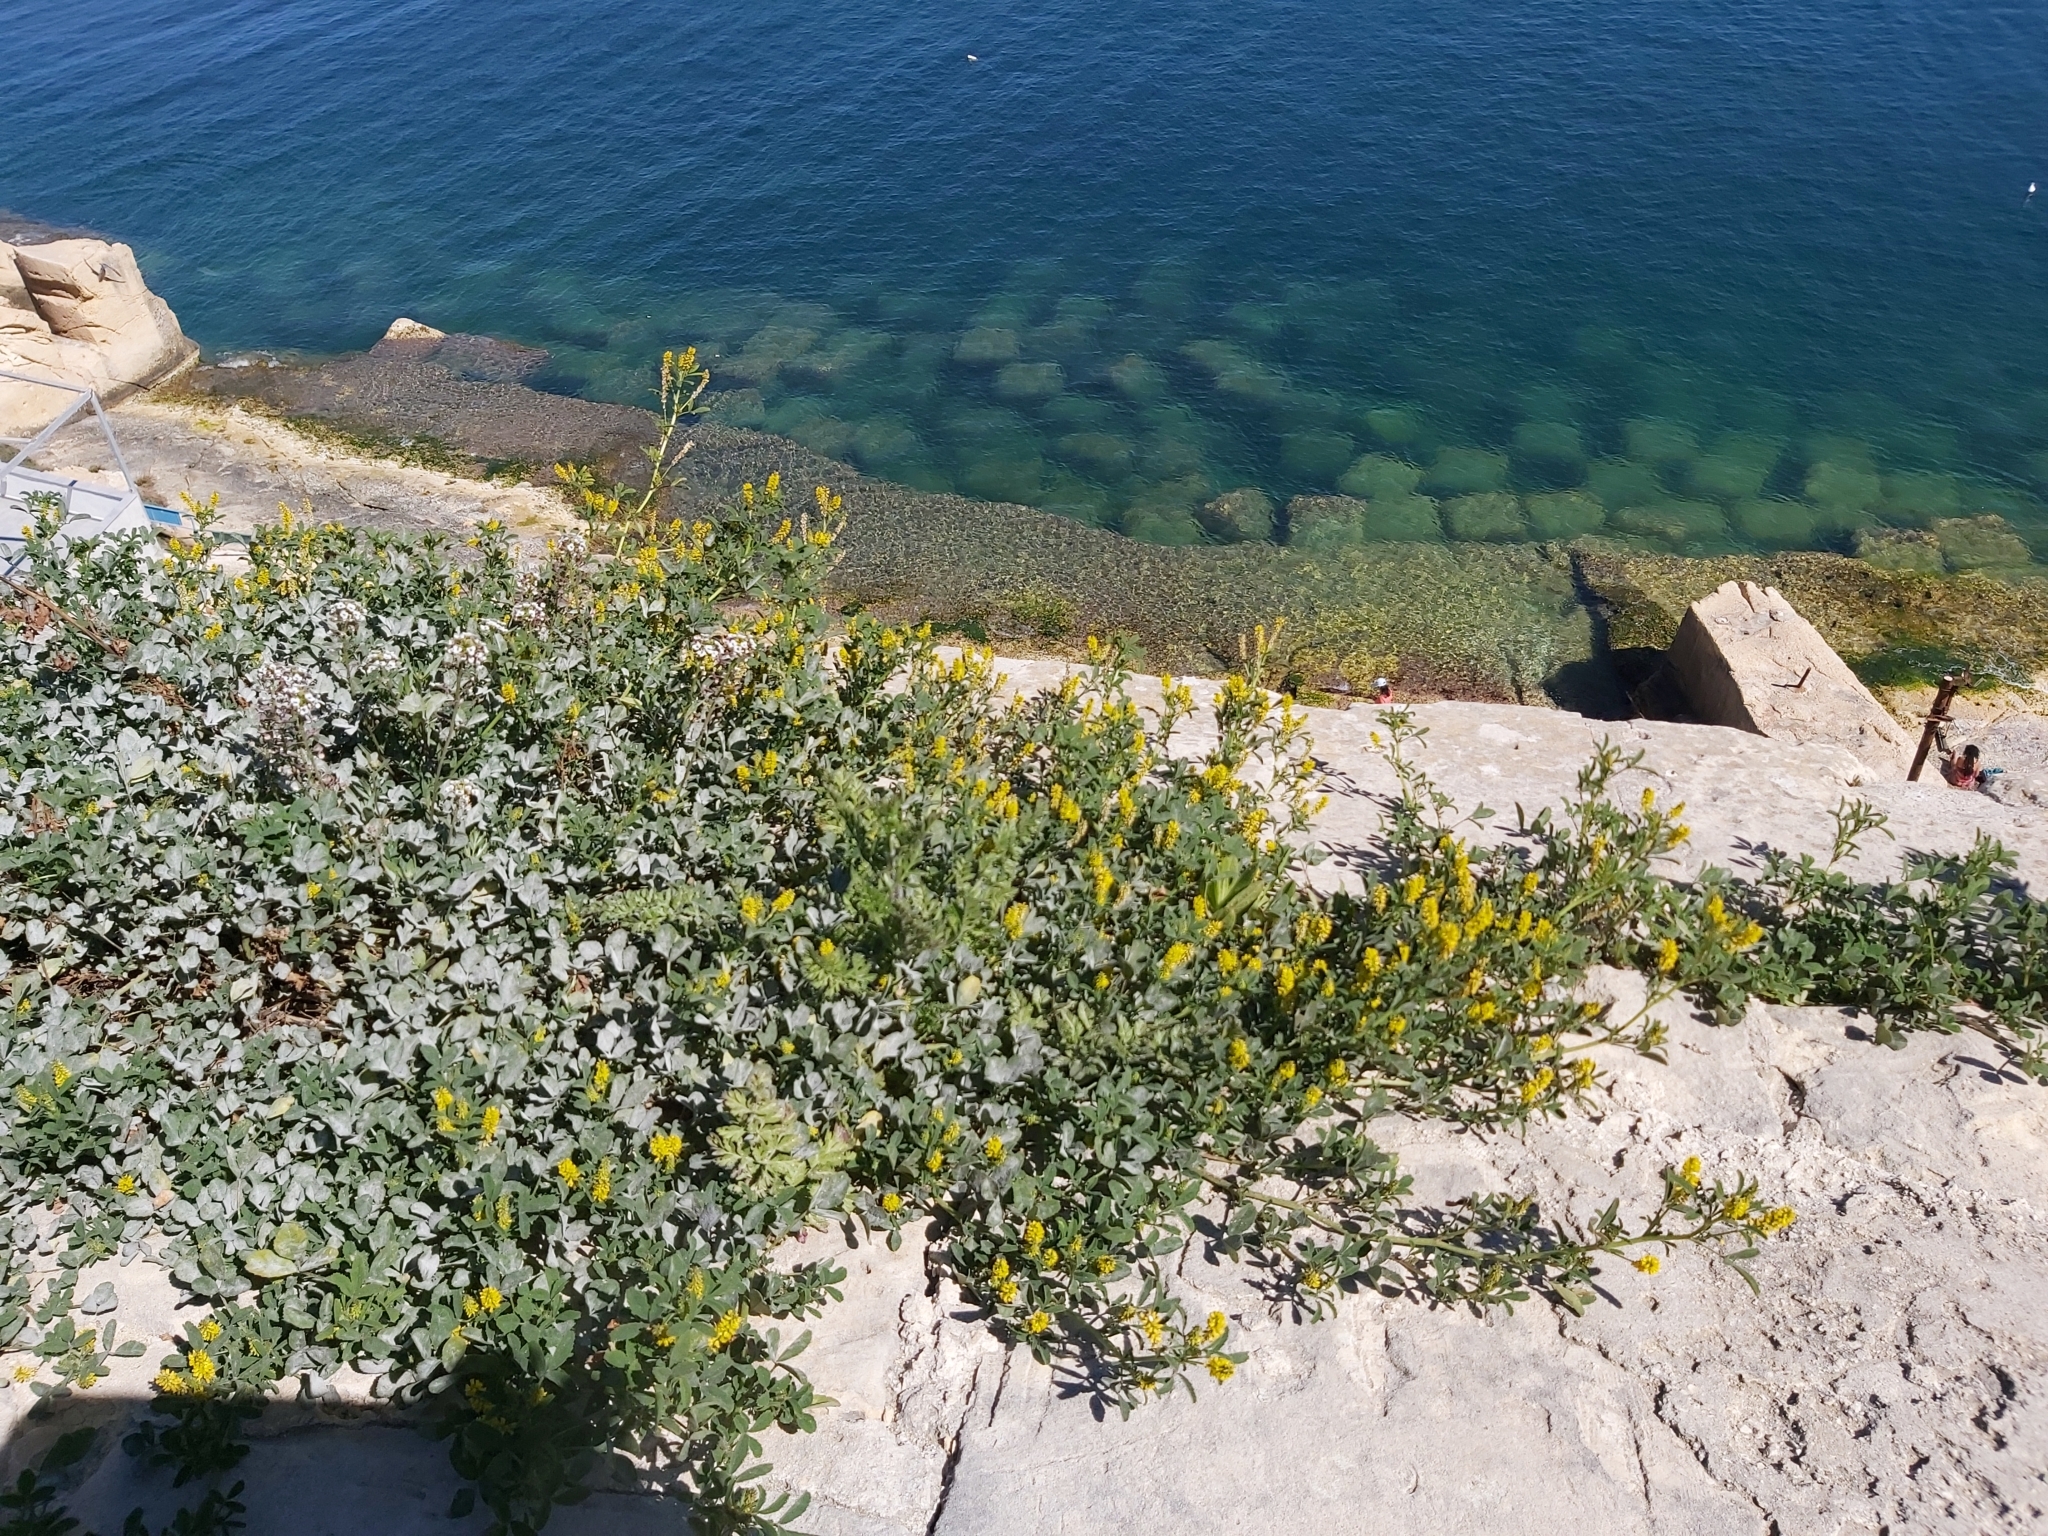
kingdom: Plantae
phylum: Tracheophyta
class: Magnoliopsida
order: Fabales
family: Fabaceae
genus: Melilotus
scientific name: Melilotus indicus
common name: Small melilot
